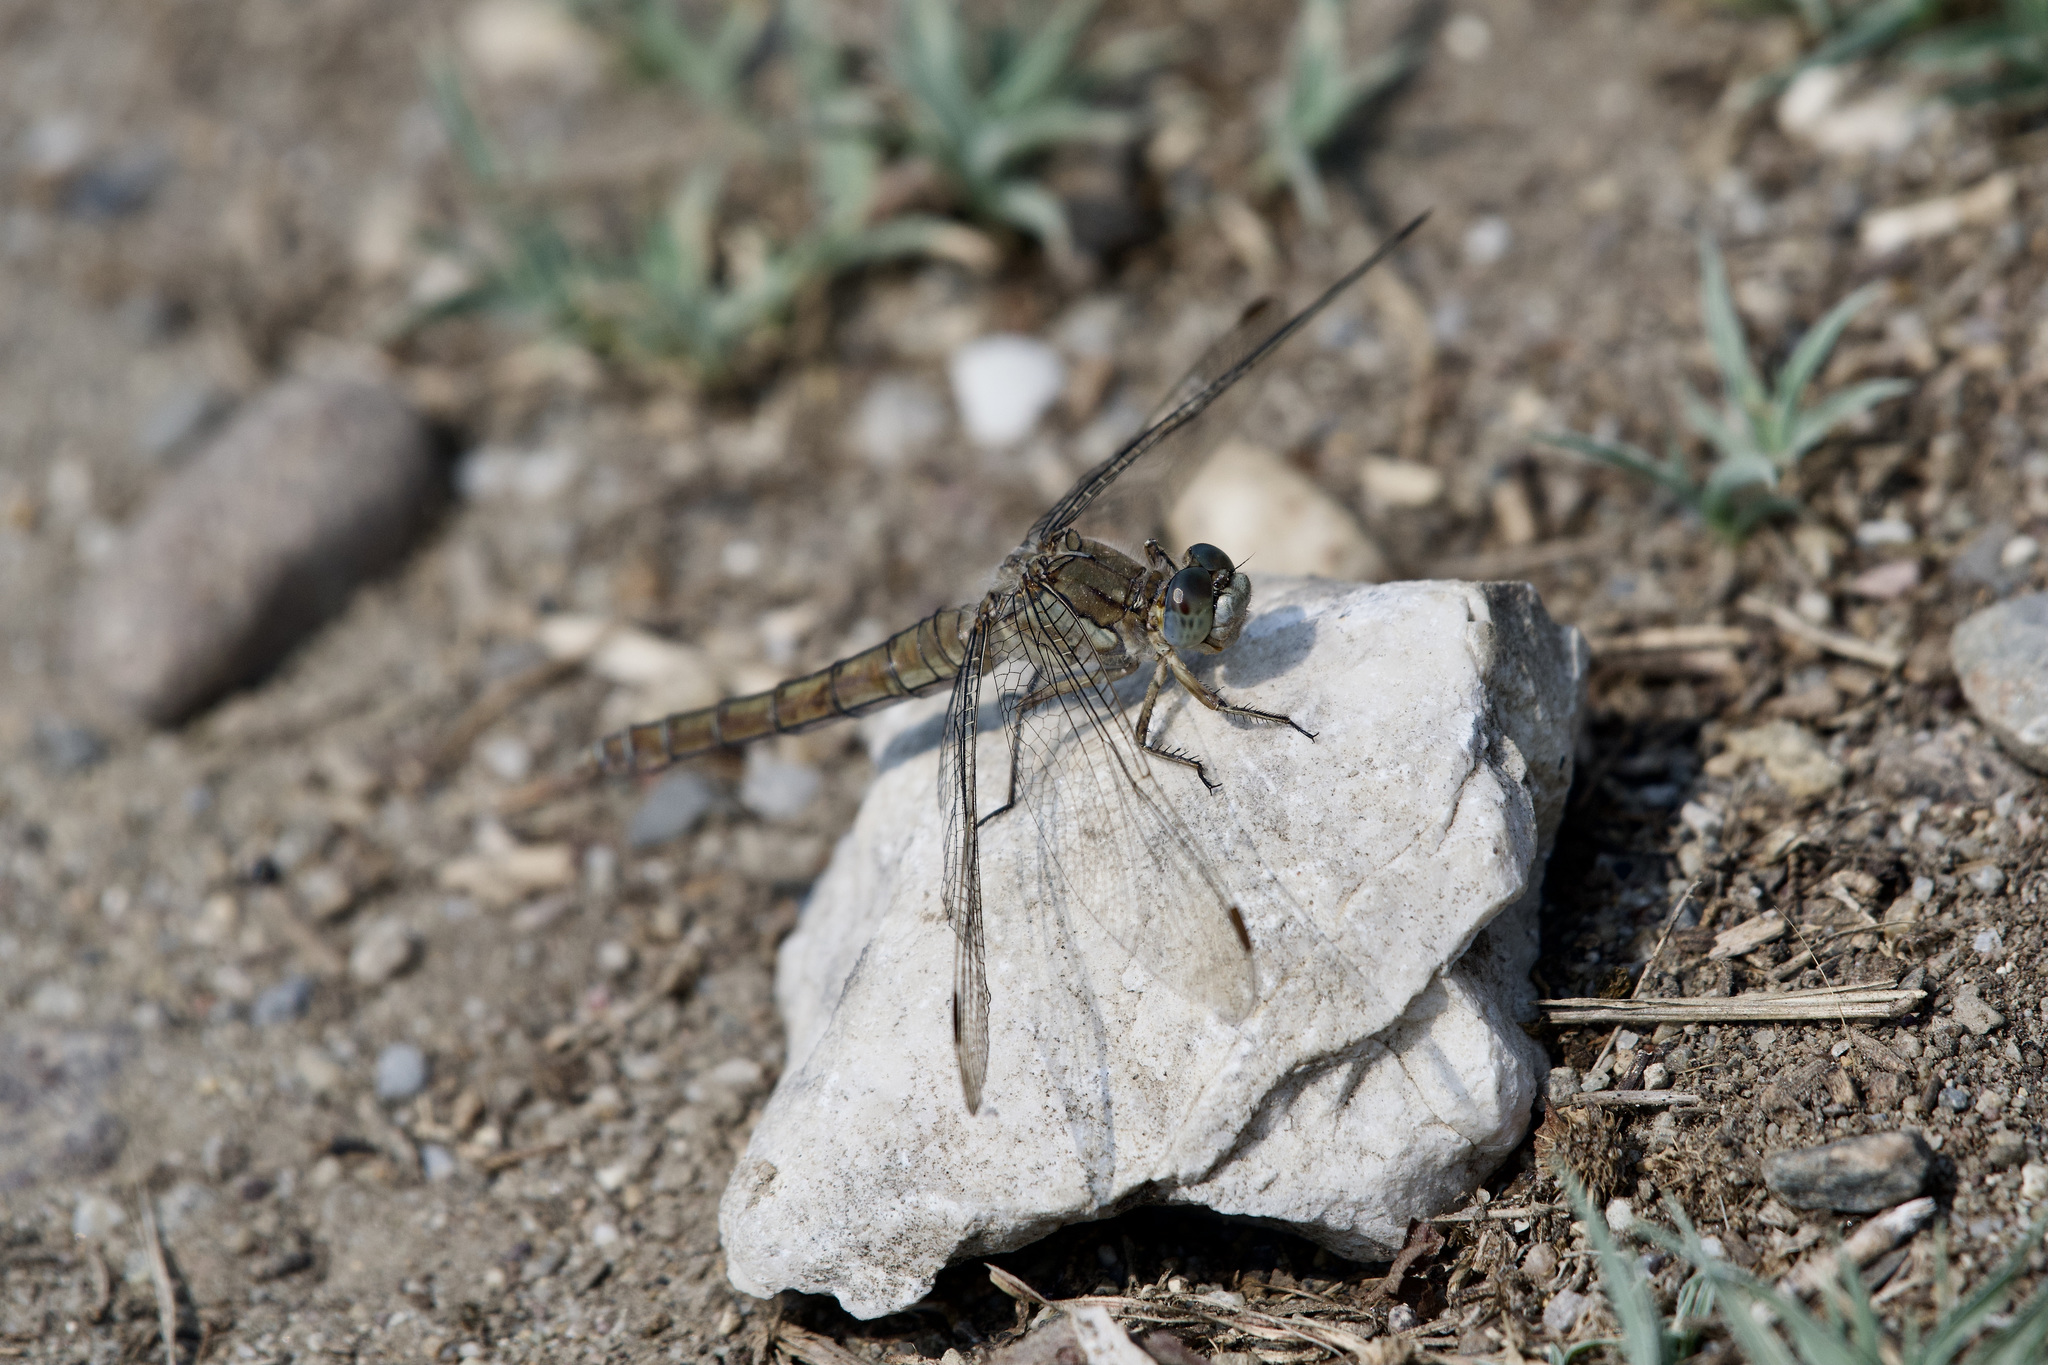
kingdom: Animalia
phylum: Arthropoda
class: Insecta
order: Odonata
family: Libellulidae
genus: Orthetrum
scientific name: Orthetrum brunneum
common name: Southern skimmer
